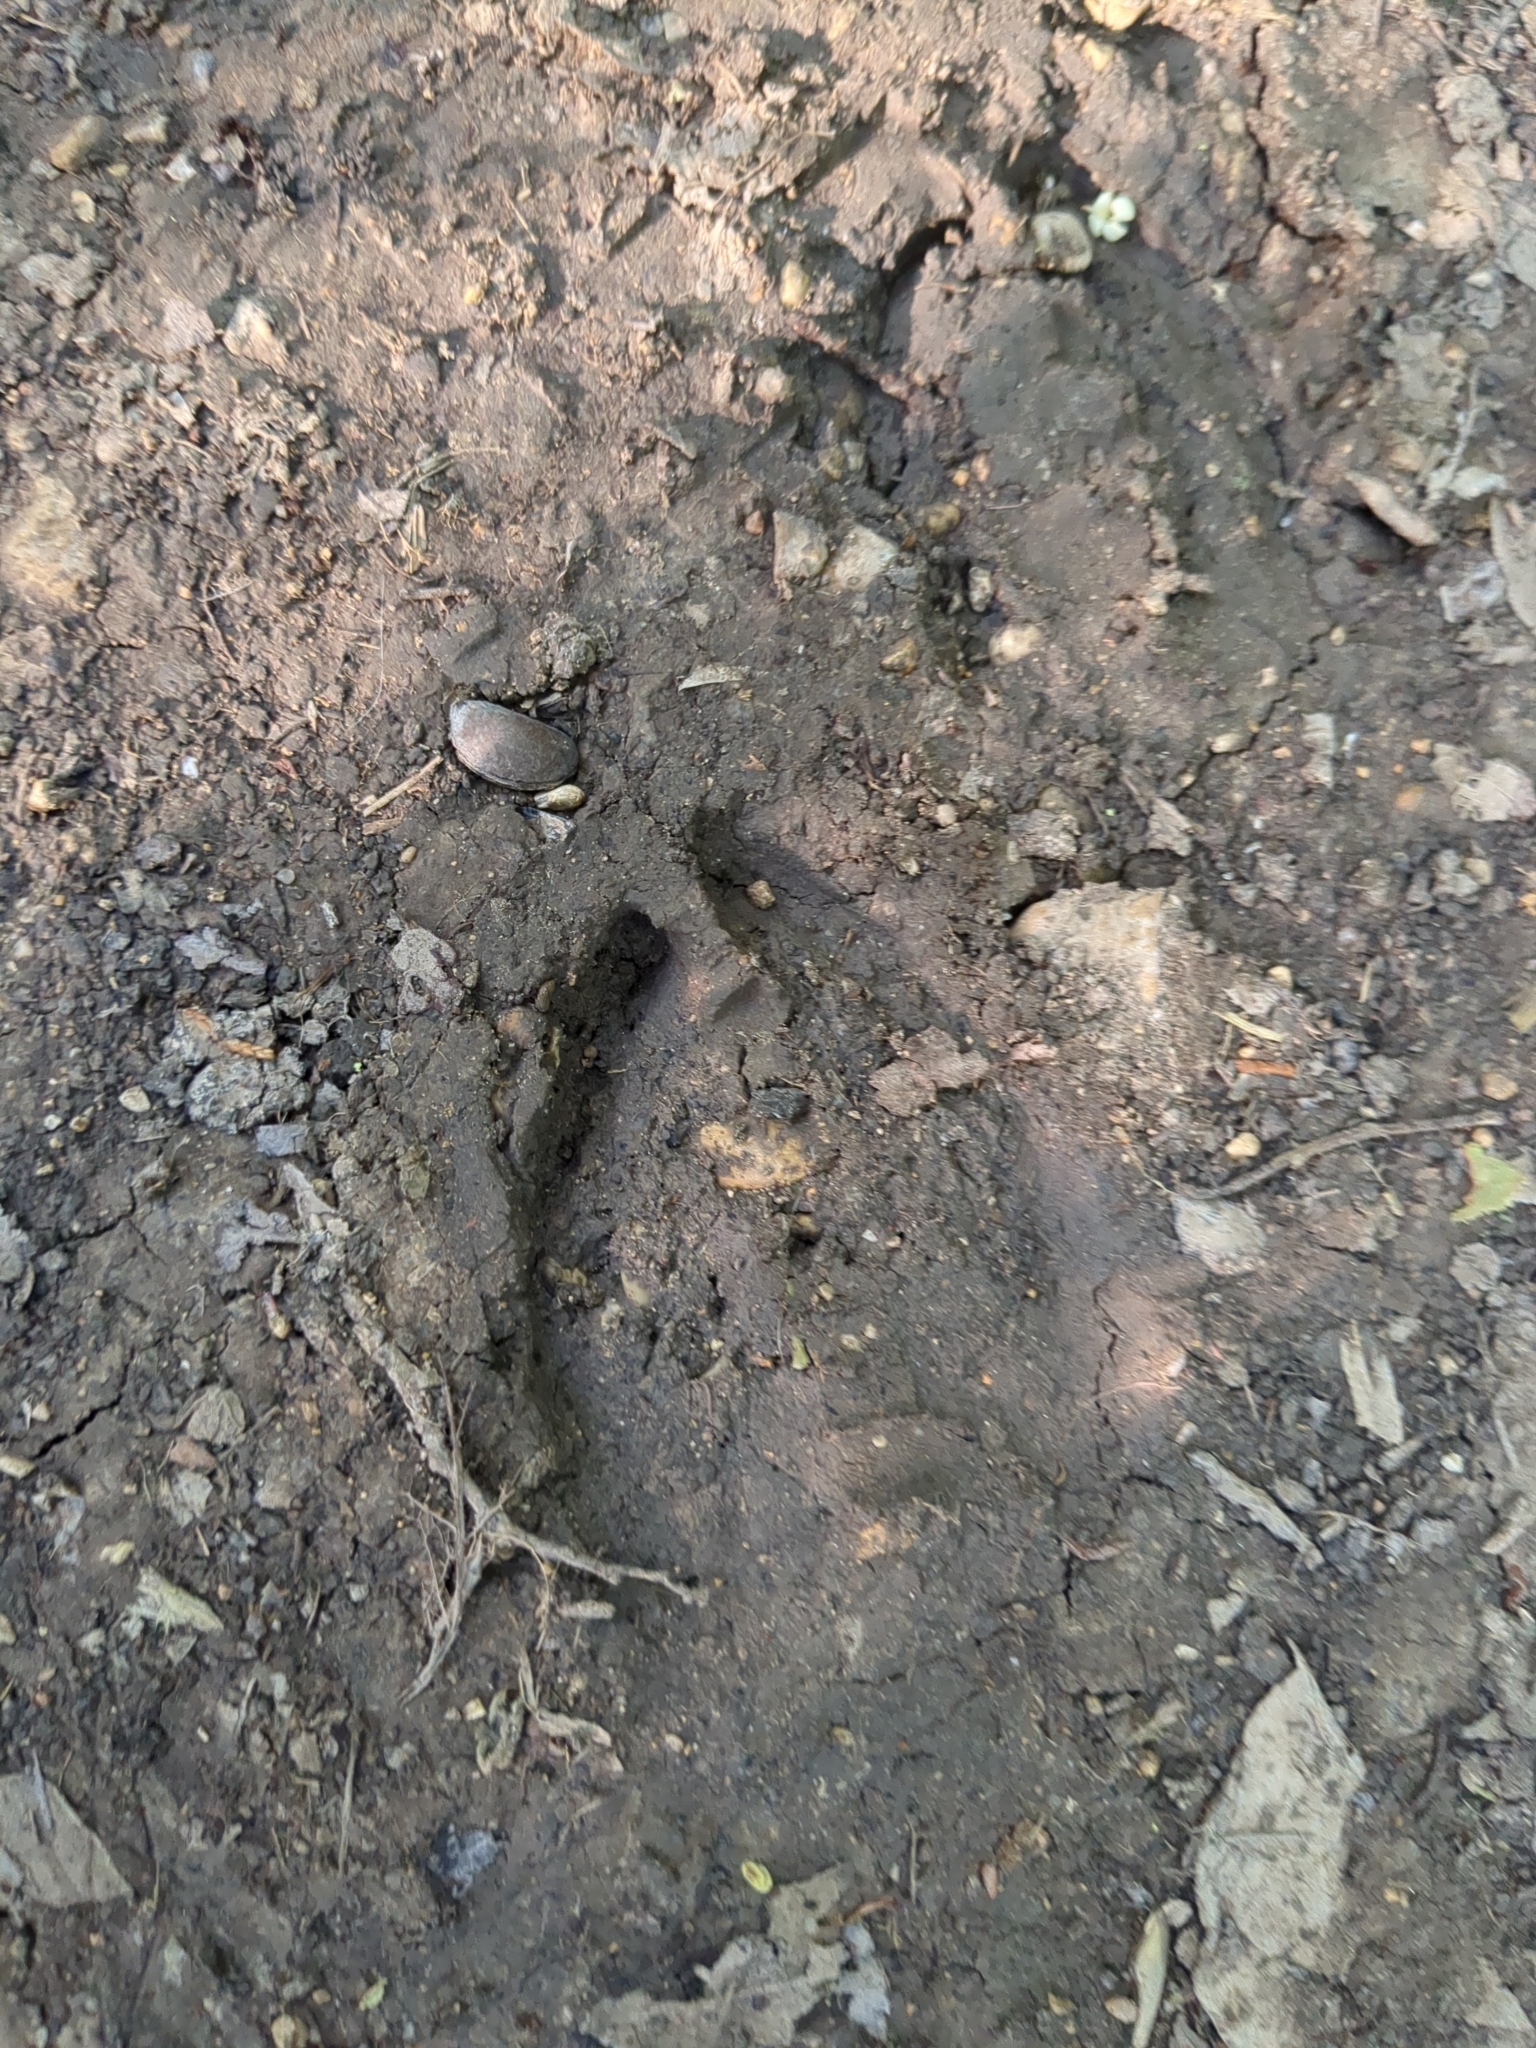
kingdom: Animalia
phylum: Chordata
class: Mammalia
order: Artiodactyla
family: Cervidae
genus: Odocoileus
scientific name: Odocoileus virginianus
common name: White-tailed deer
